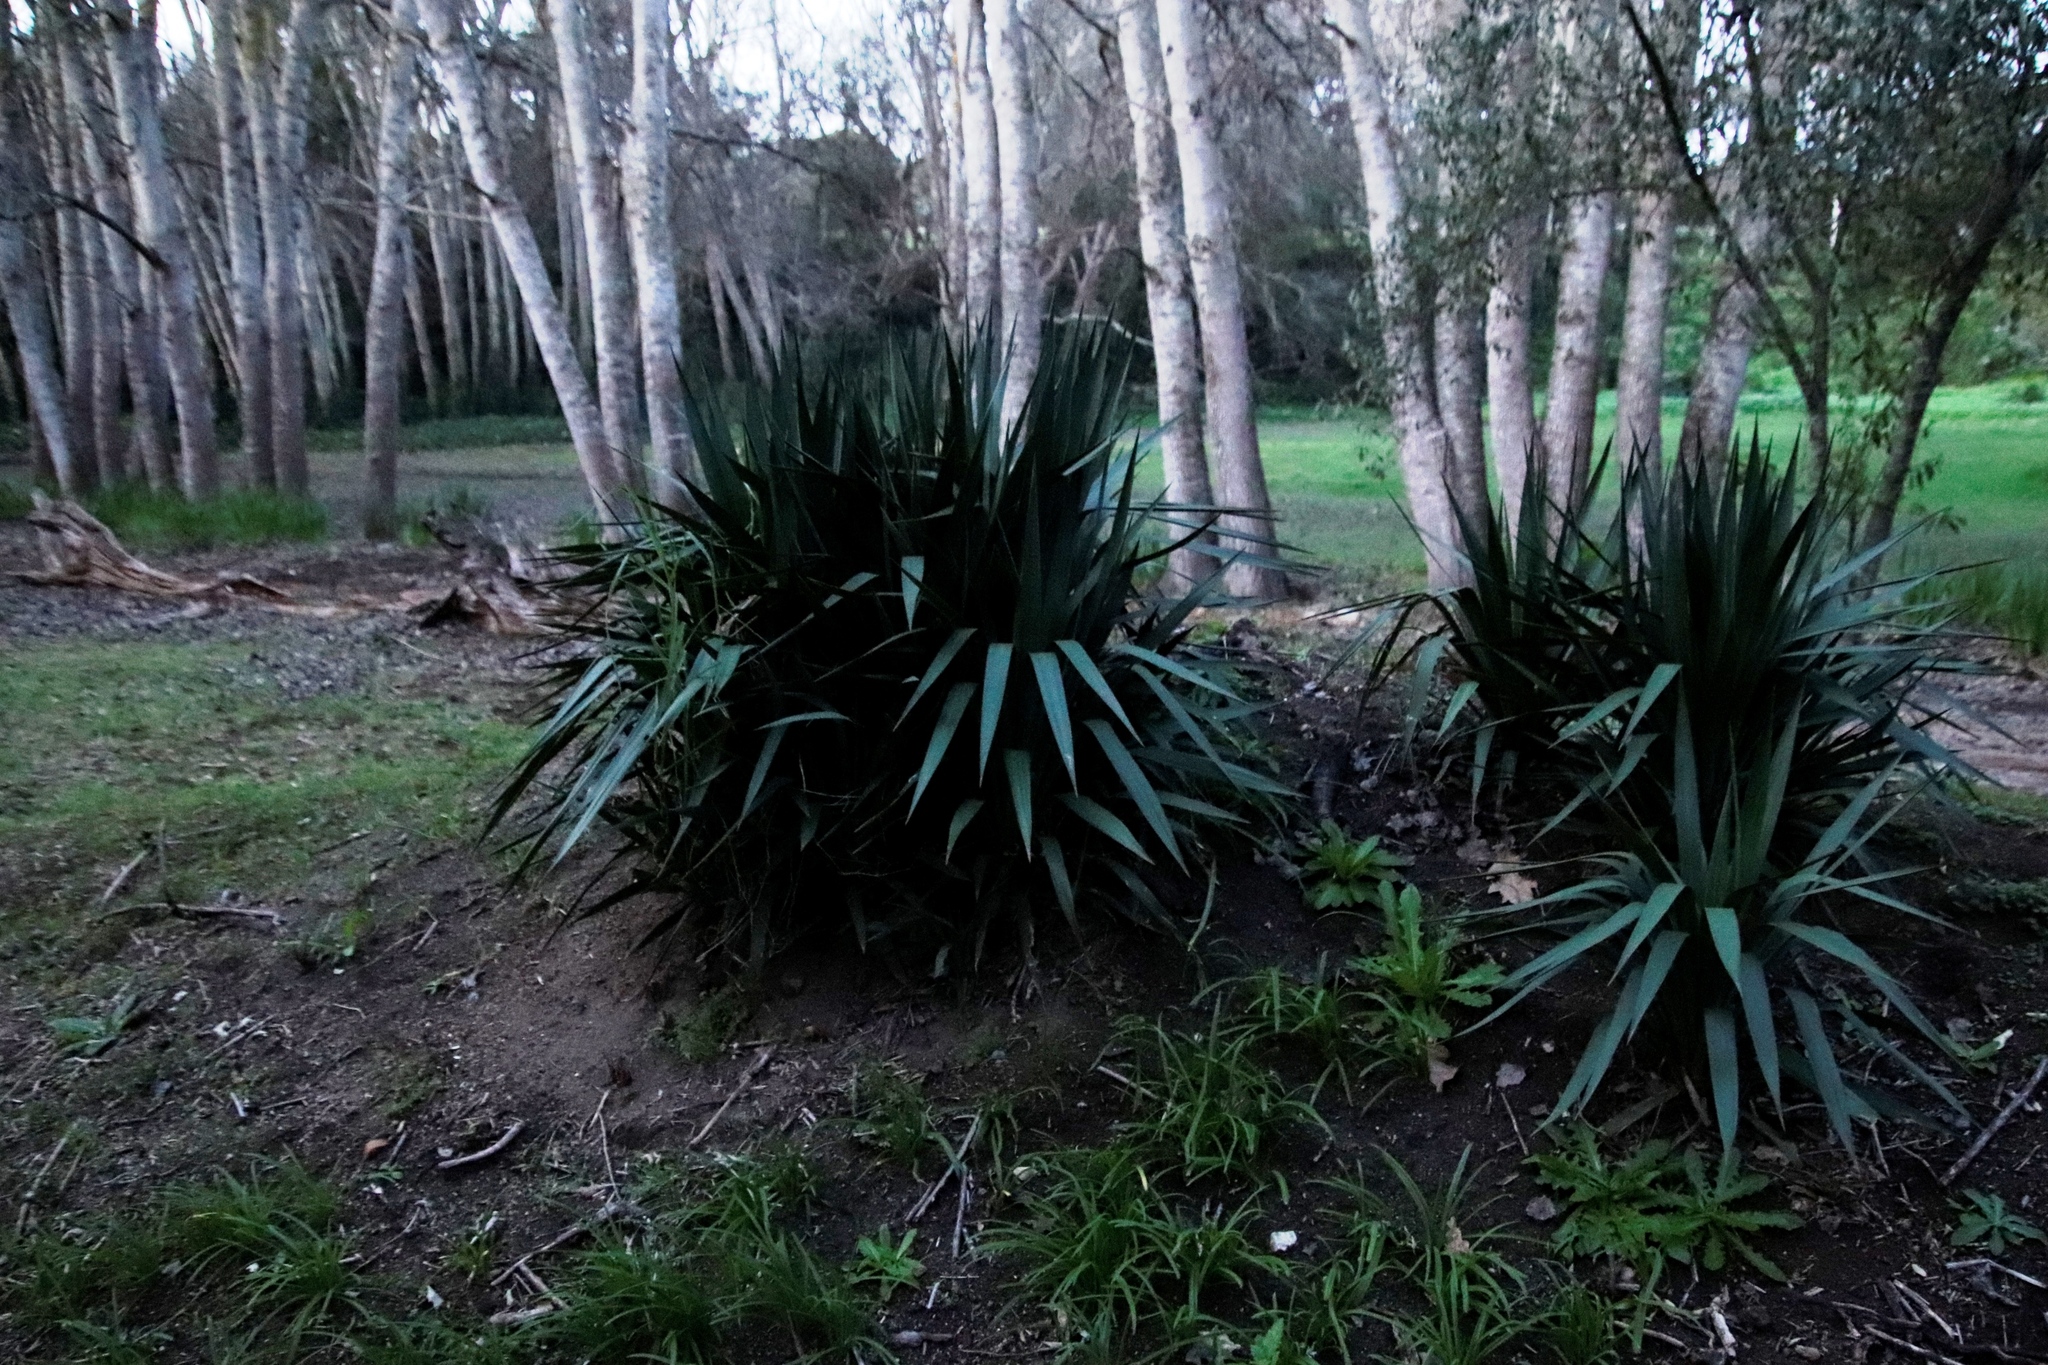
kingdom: Plantae
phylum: Tracheophyta
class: Liliopsida
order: Asparagales
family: Asparagaceae
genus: Yucca
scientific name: Yucca gloriosa
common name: Spanish-dagger
